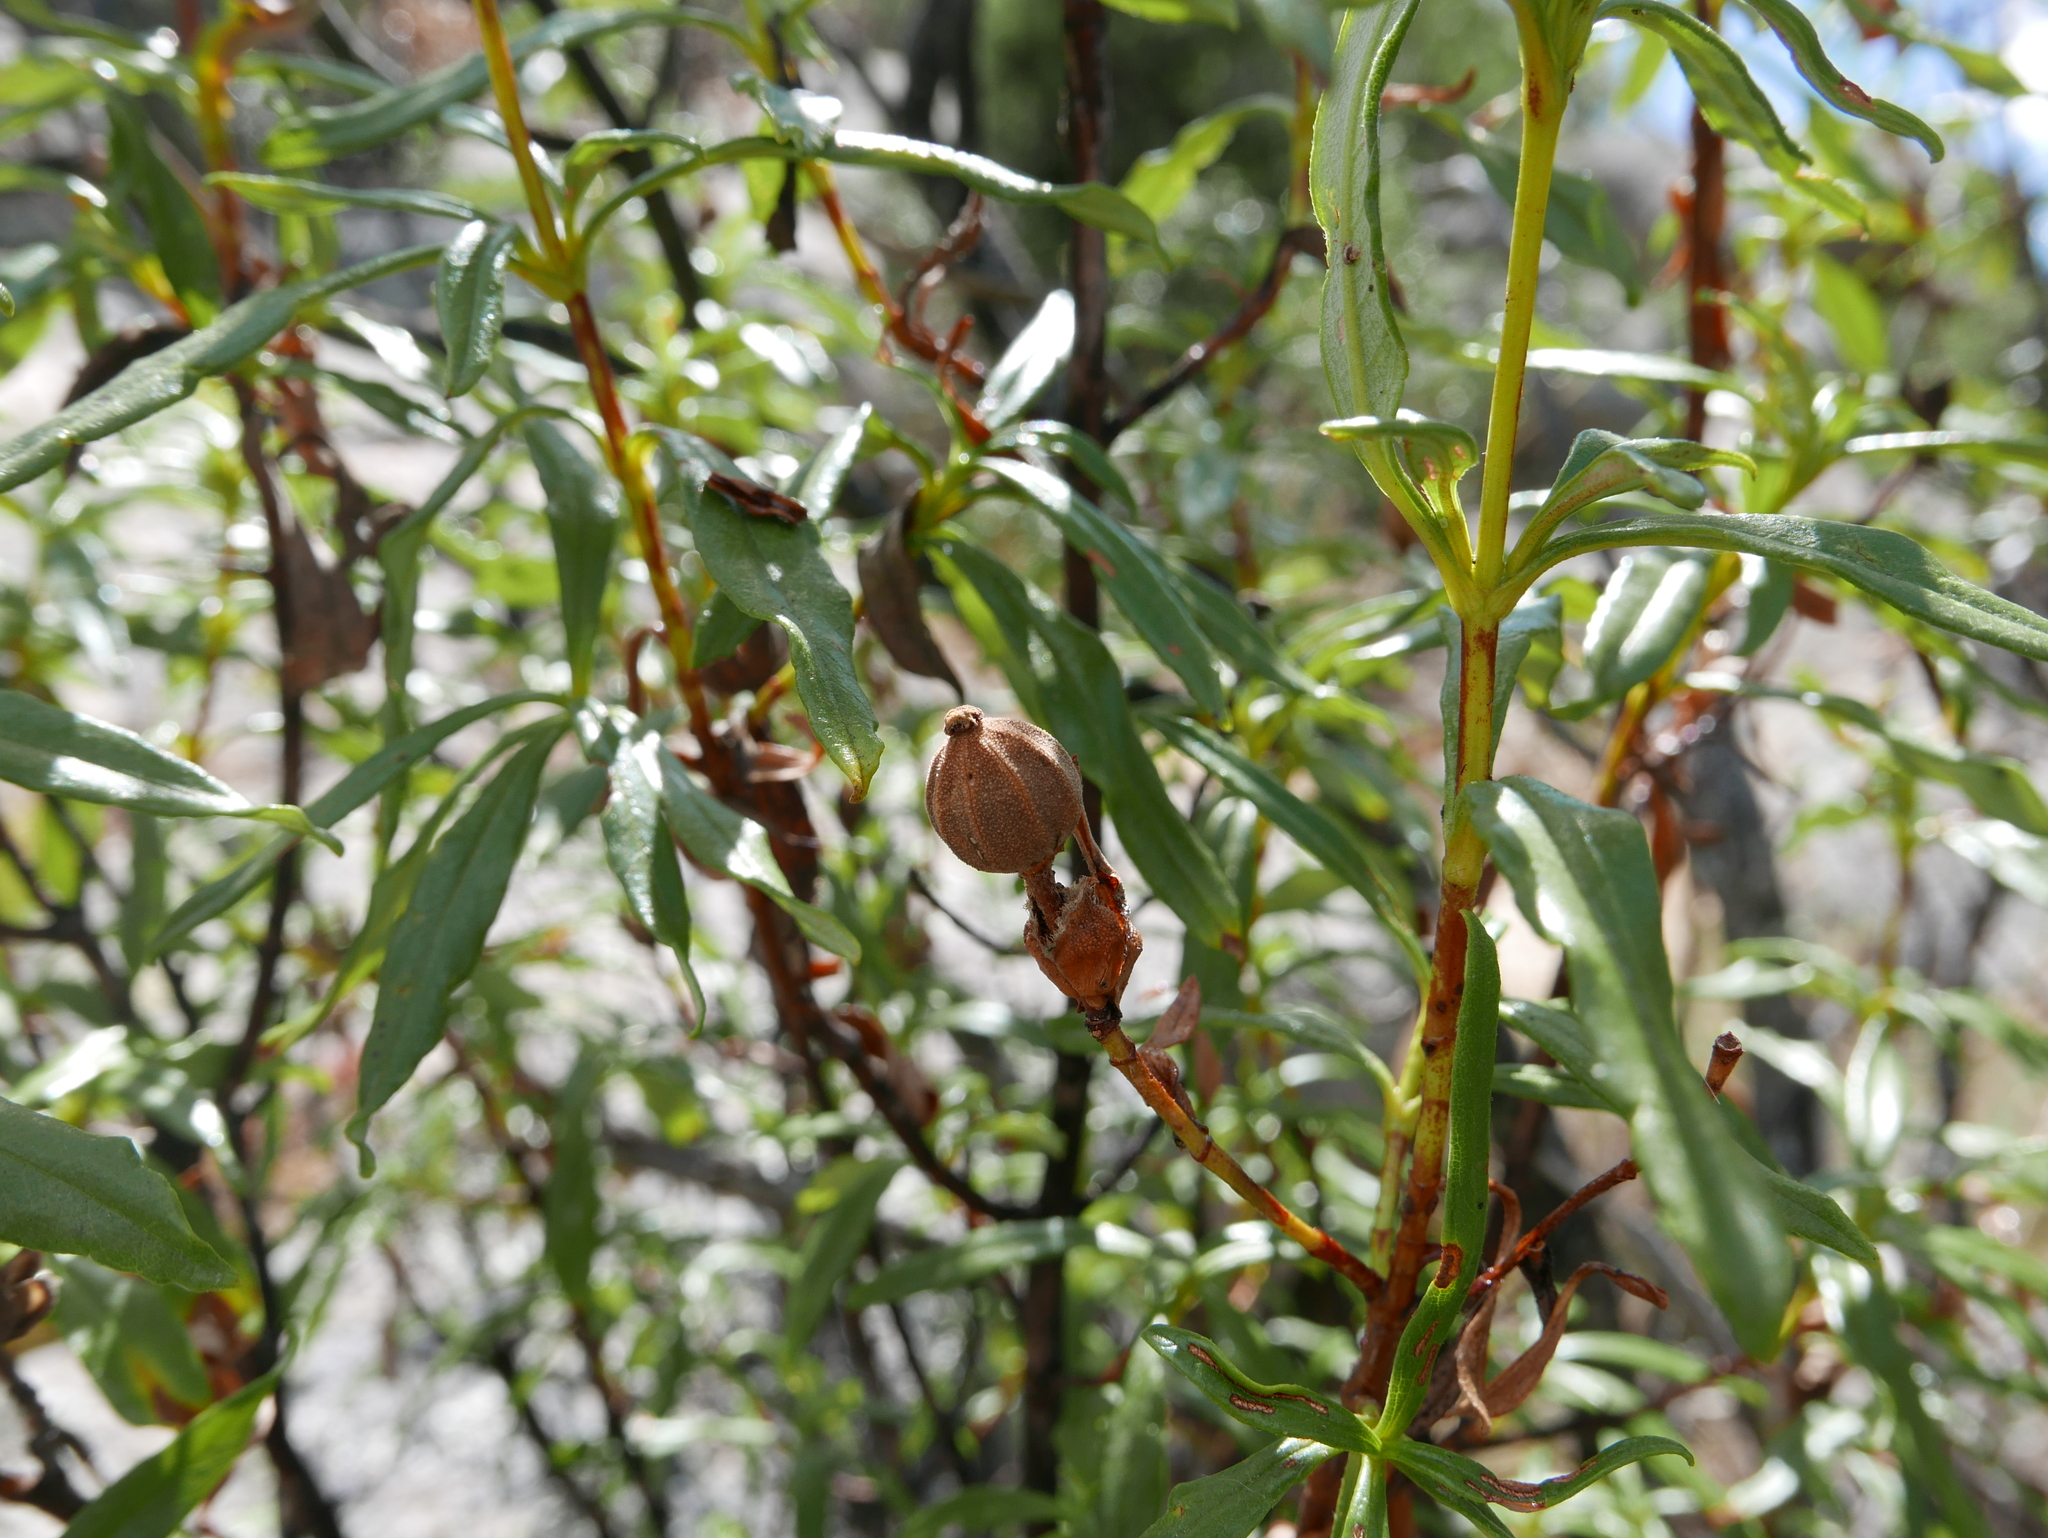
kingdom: Plantae
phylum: Tracheophyta
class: Magnoliopsida
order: Malvales
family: Cistaceae
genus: Cistus
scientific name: Cistus ladanifer
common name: Common gum cistus
